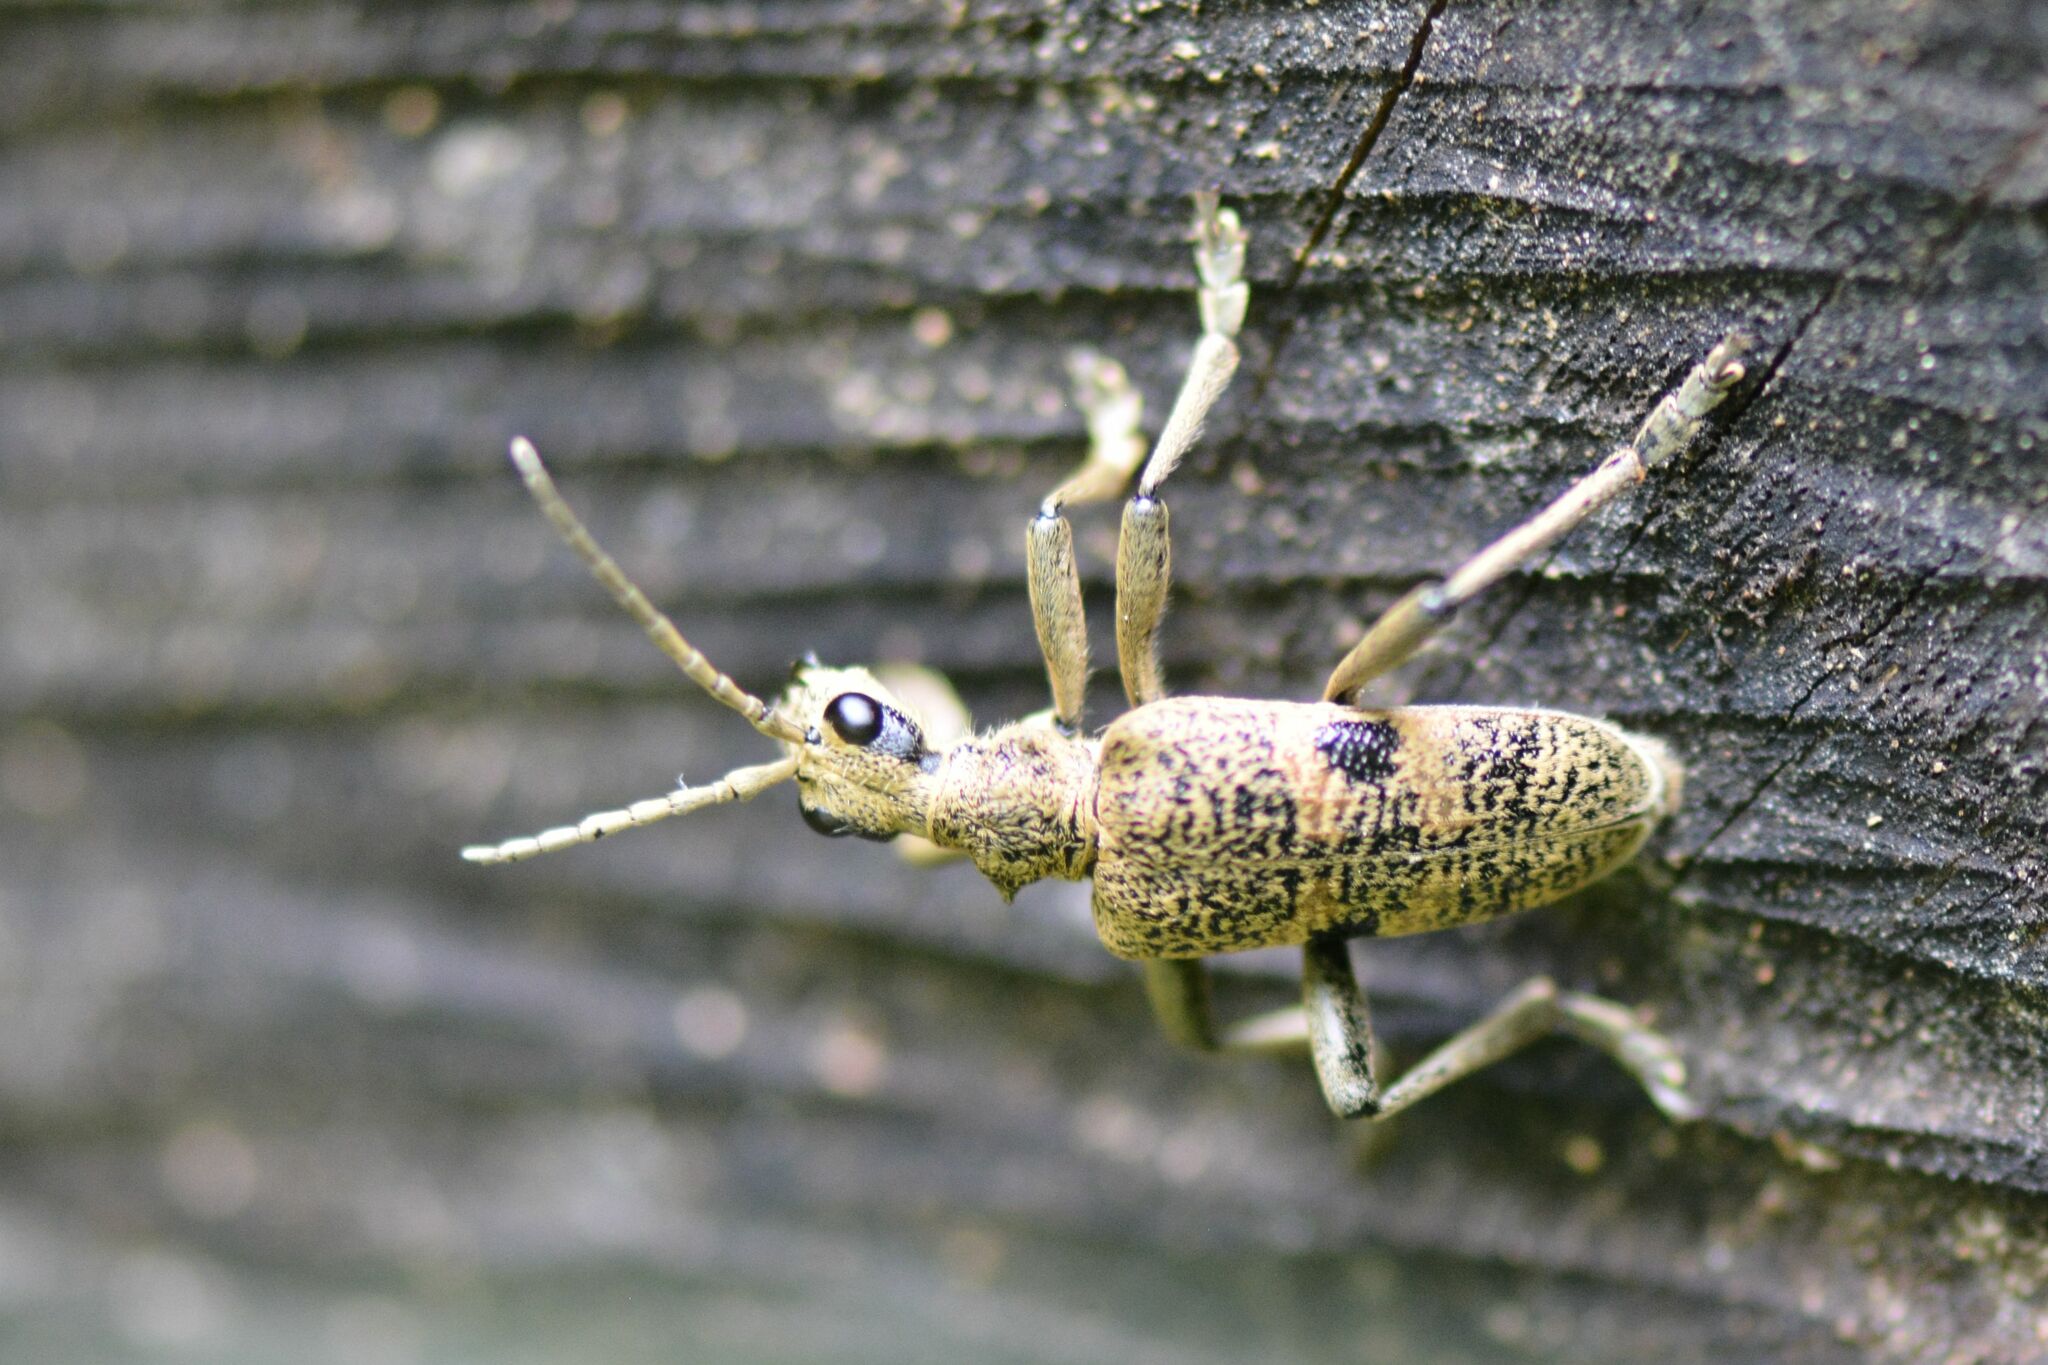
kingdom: Animalia
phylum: Arthropoda
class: Insecta
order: Coleoptera
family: Cerambycidae
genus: Rhagium
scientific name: Rhagium mordax
